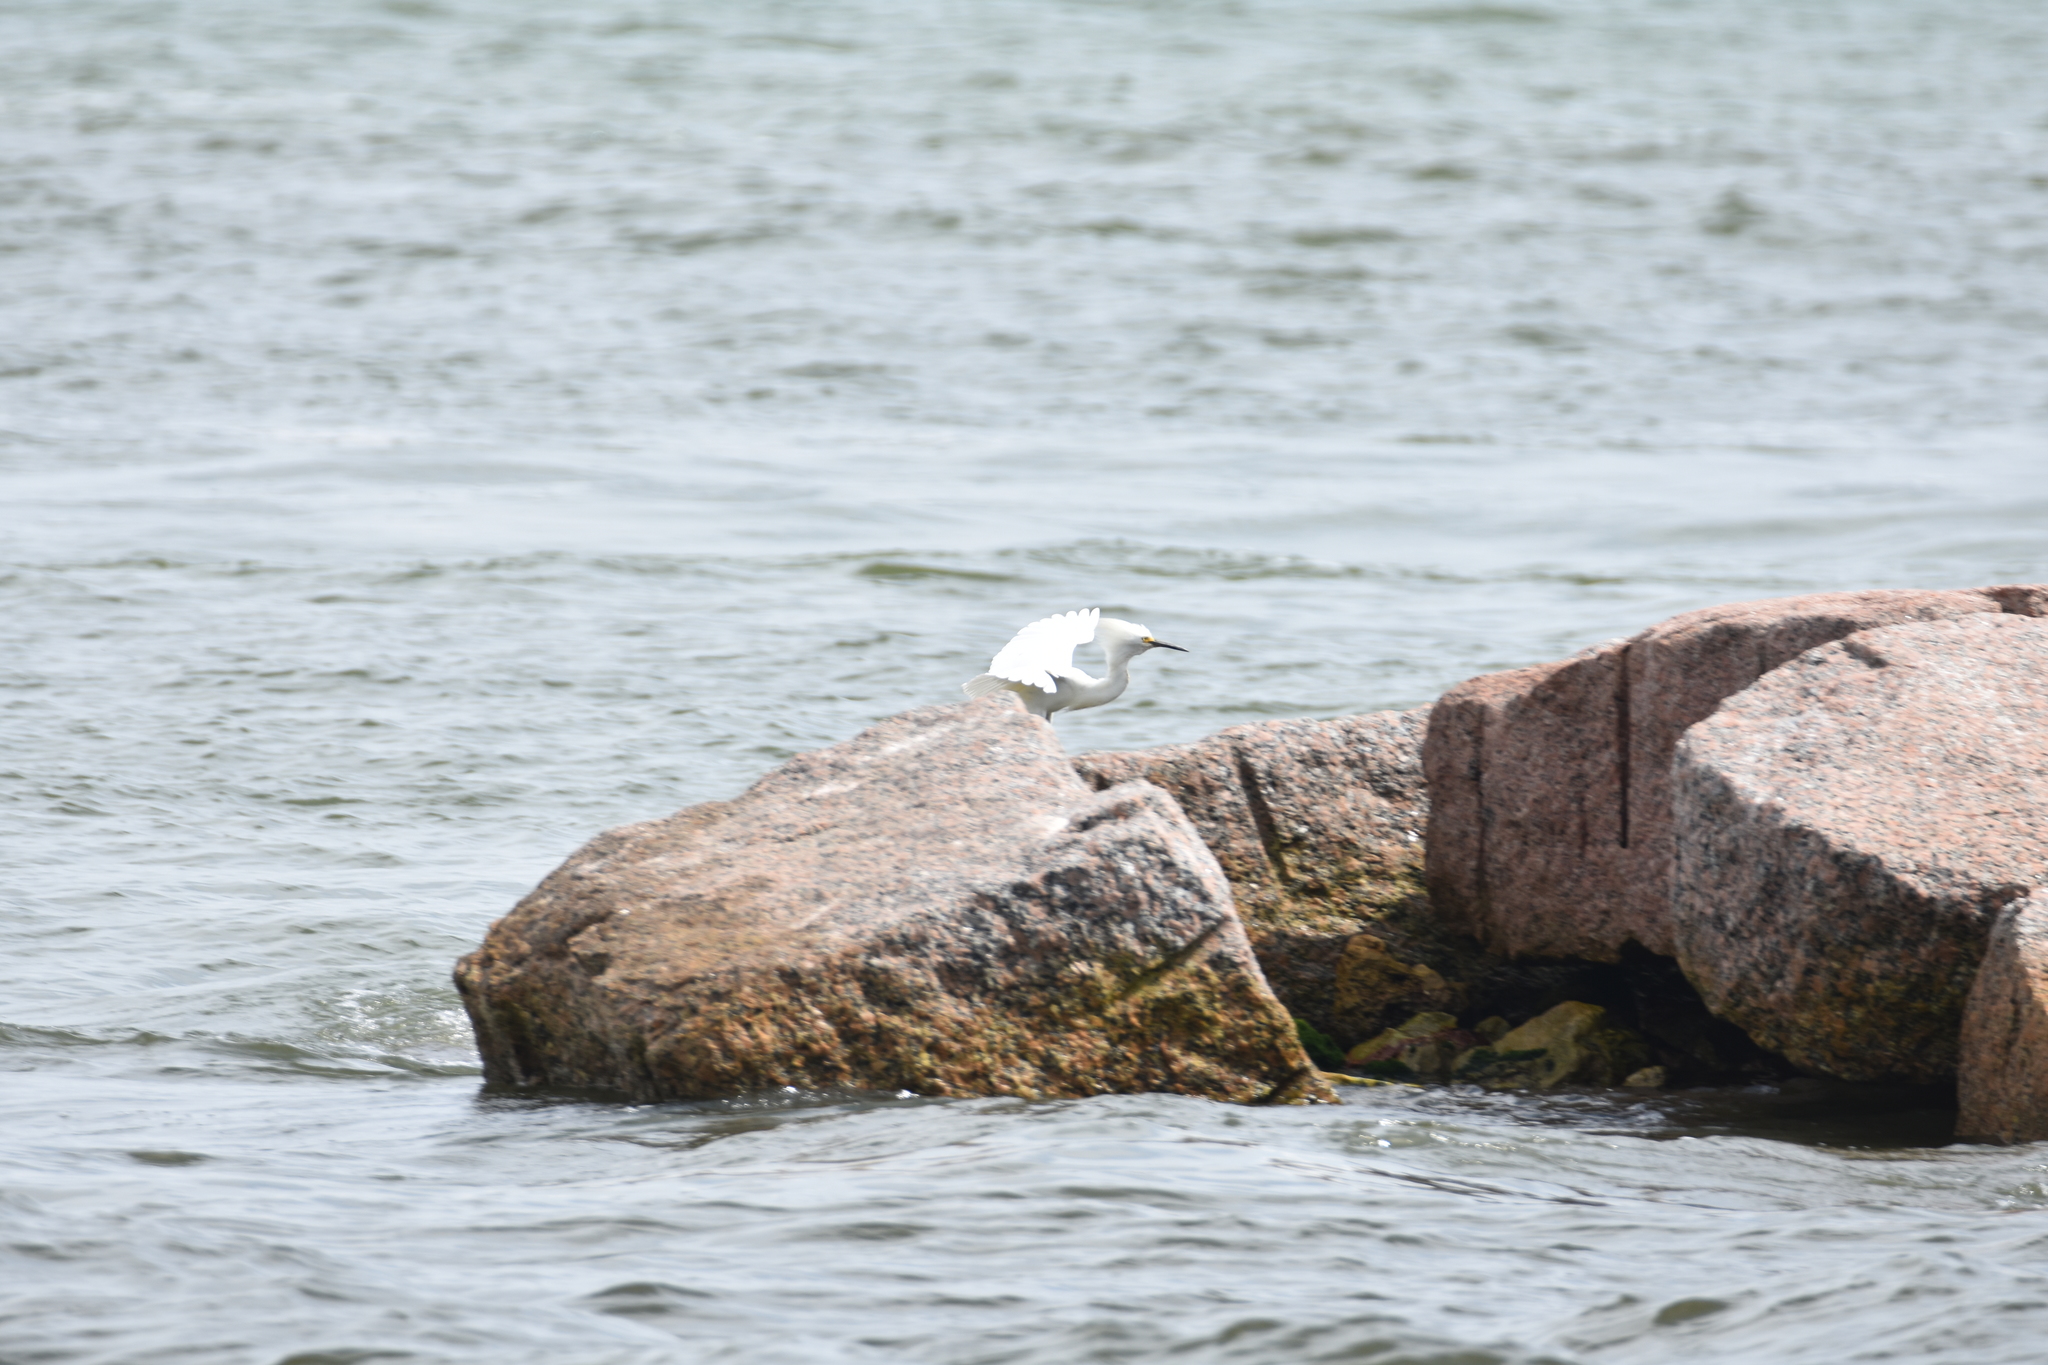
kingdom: Animalia
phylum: Chordata
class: Aves
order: Pelecaniformes
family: Ardeidae
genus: Egretta
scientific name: Egretta thula
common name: Snowy egret
